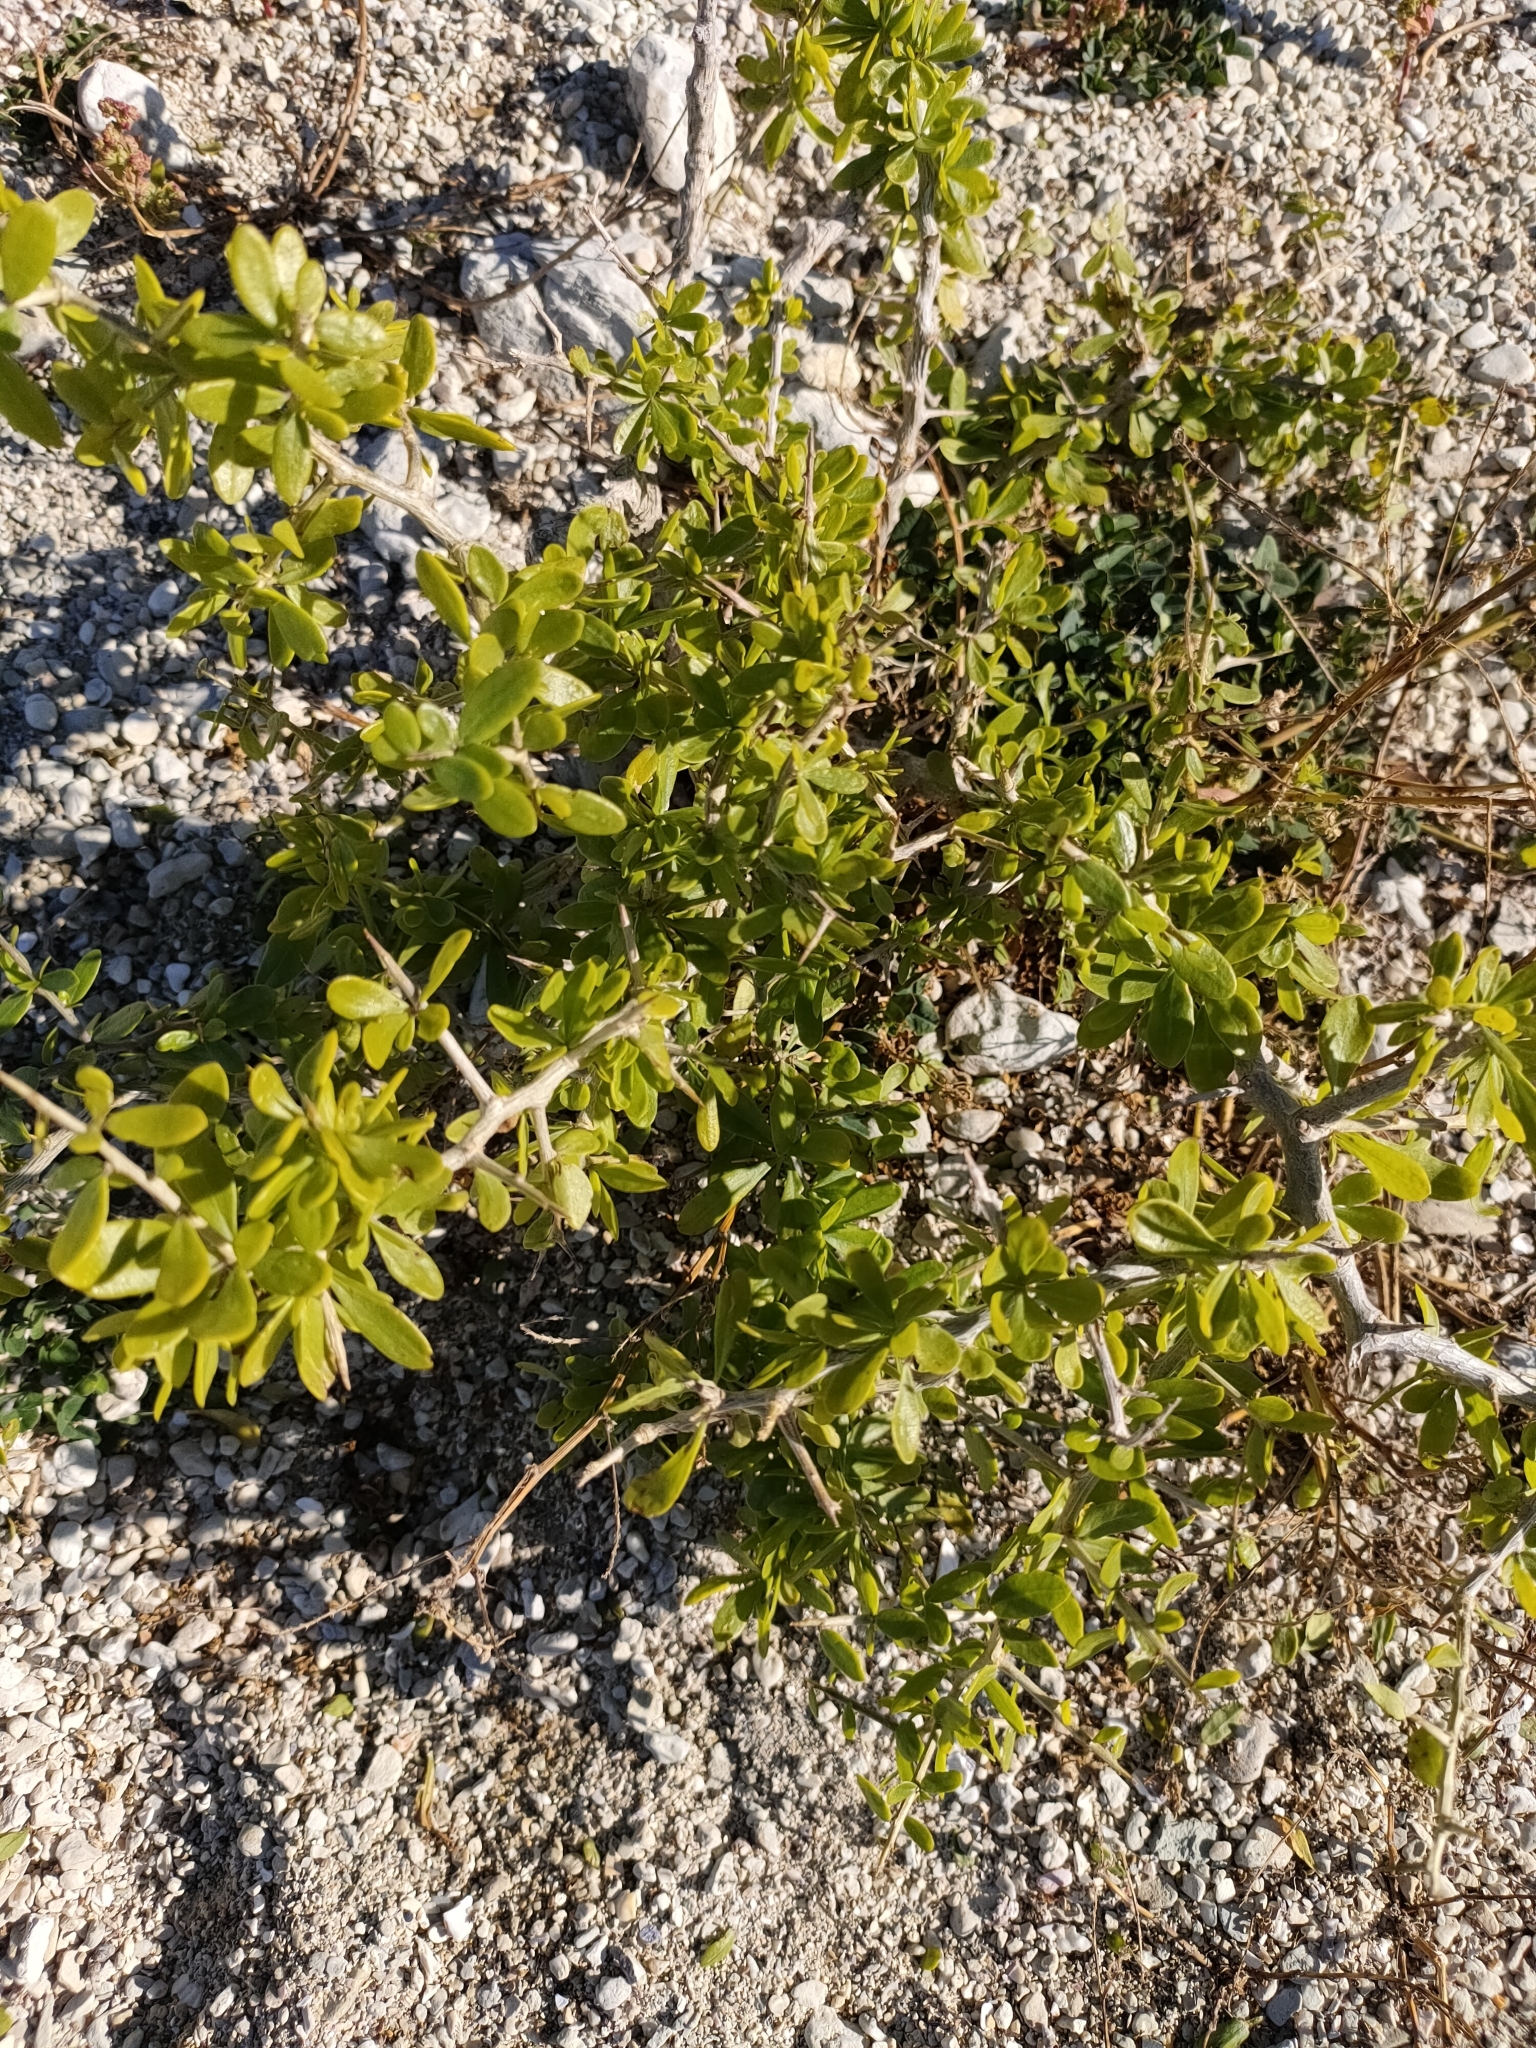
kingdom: Plantae
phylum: Tracheophyta
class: Magnoliopsida
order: Solanales
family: Solanaceae
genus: Lycium
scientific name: Lycium ferocissimum
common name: African boxthorn
